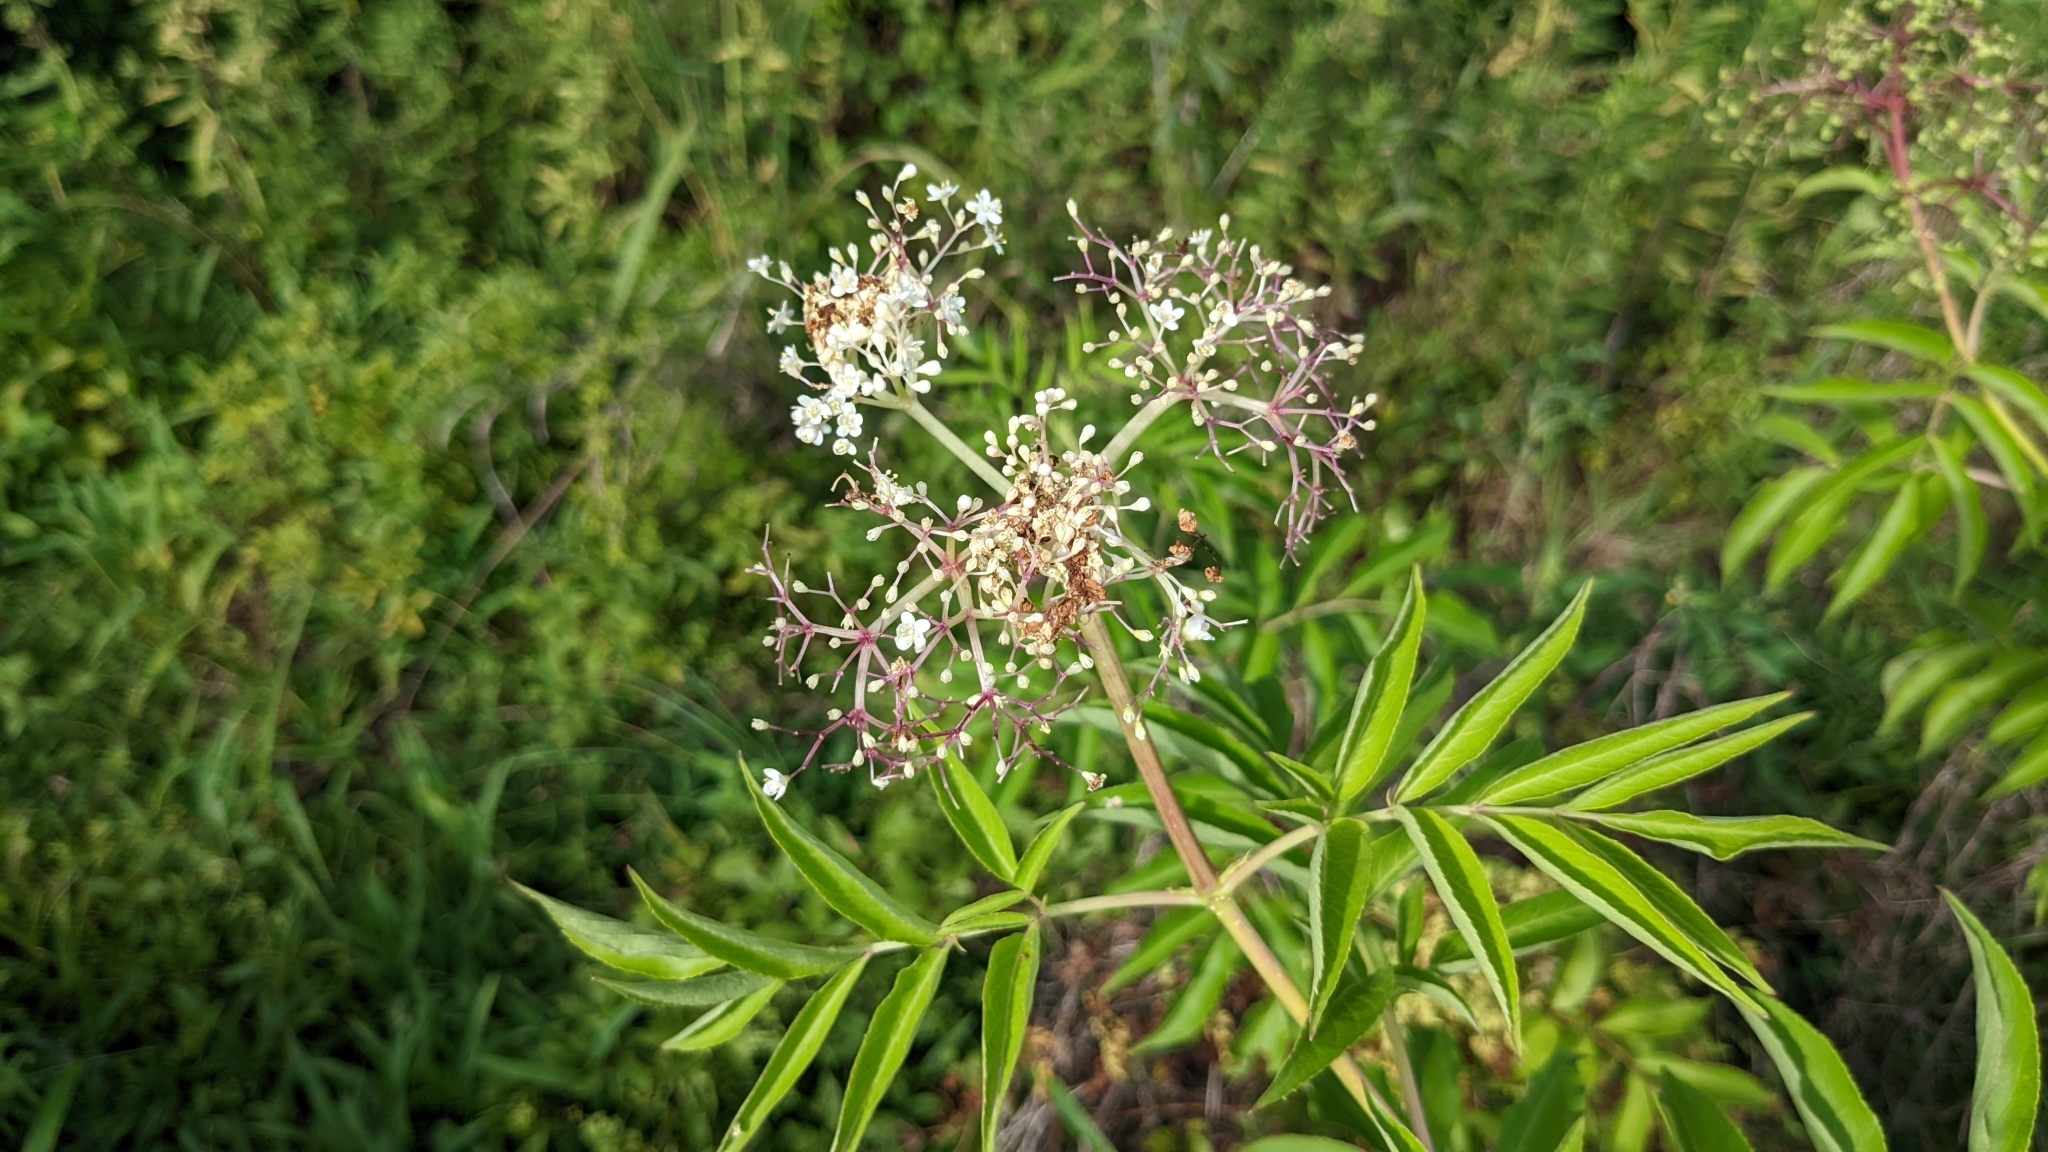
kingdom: Plantae
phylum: Tracheophyta
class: Magnoliopsida
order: Dipsacales
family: Viburnaceae
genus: Sambucus
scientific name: Sambucus canadensis
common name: American elder
